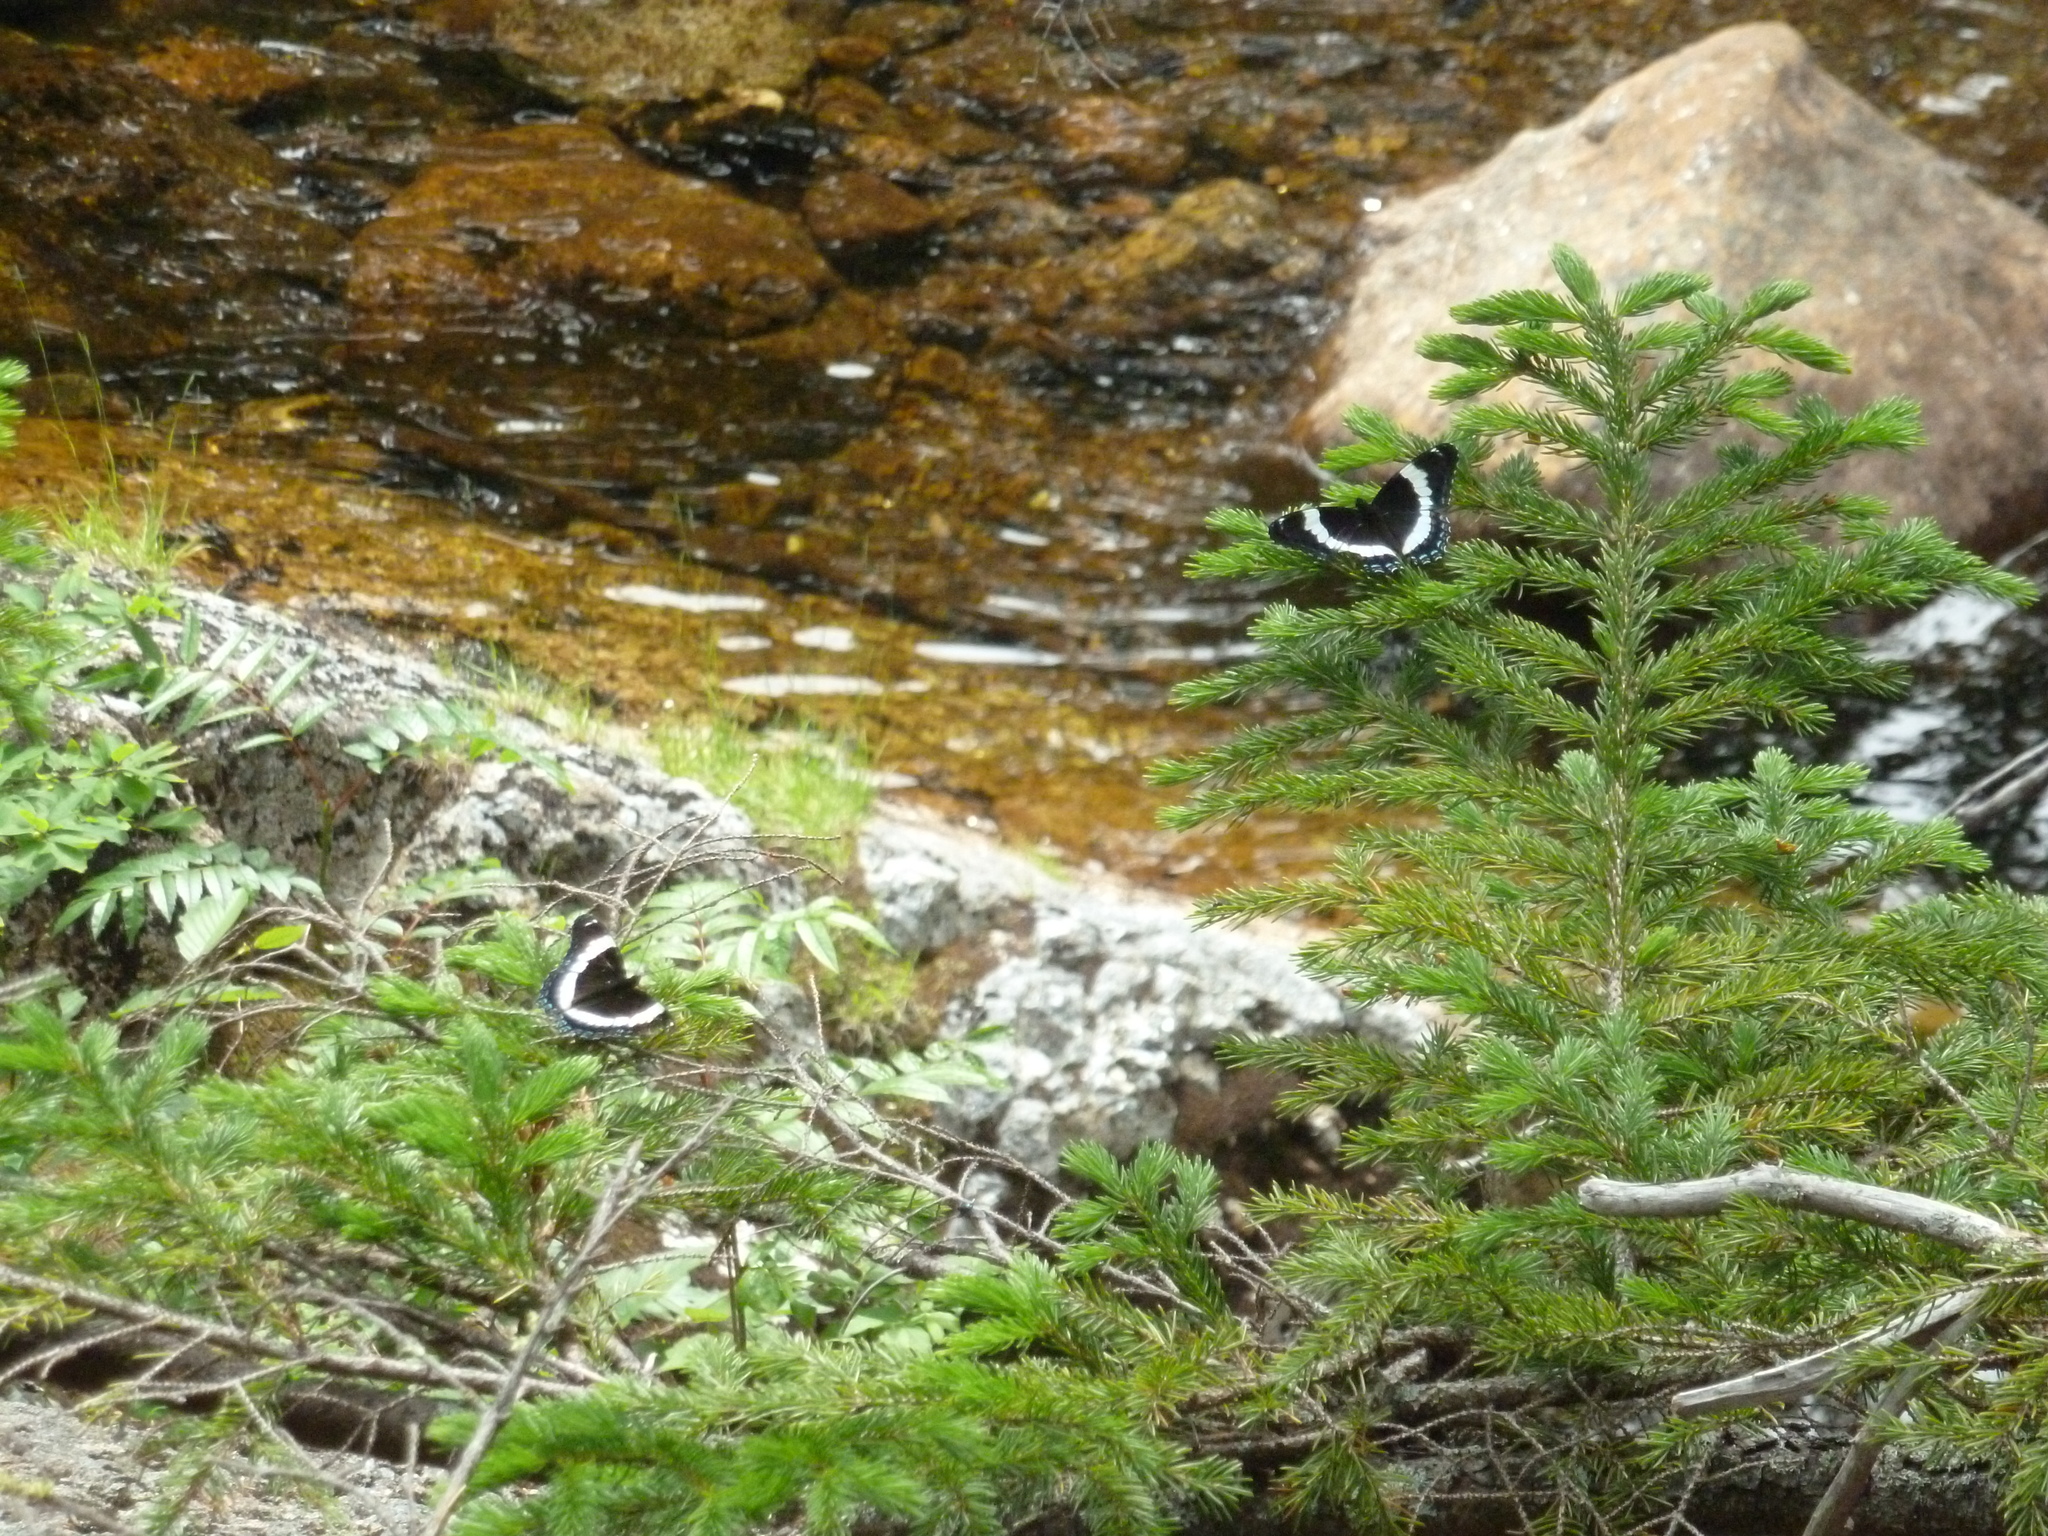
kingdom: Animalia
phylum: Arthropoda
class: Insecta
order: Lepidoptera
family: Nymphalidae
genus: Limenitis
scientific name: Limenitis arthemis
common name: Red-spotted admiral
